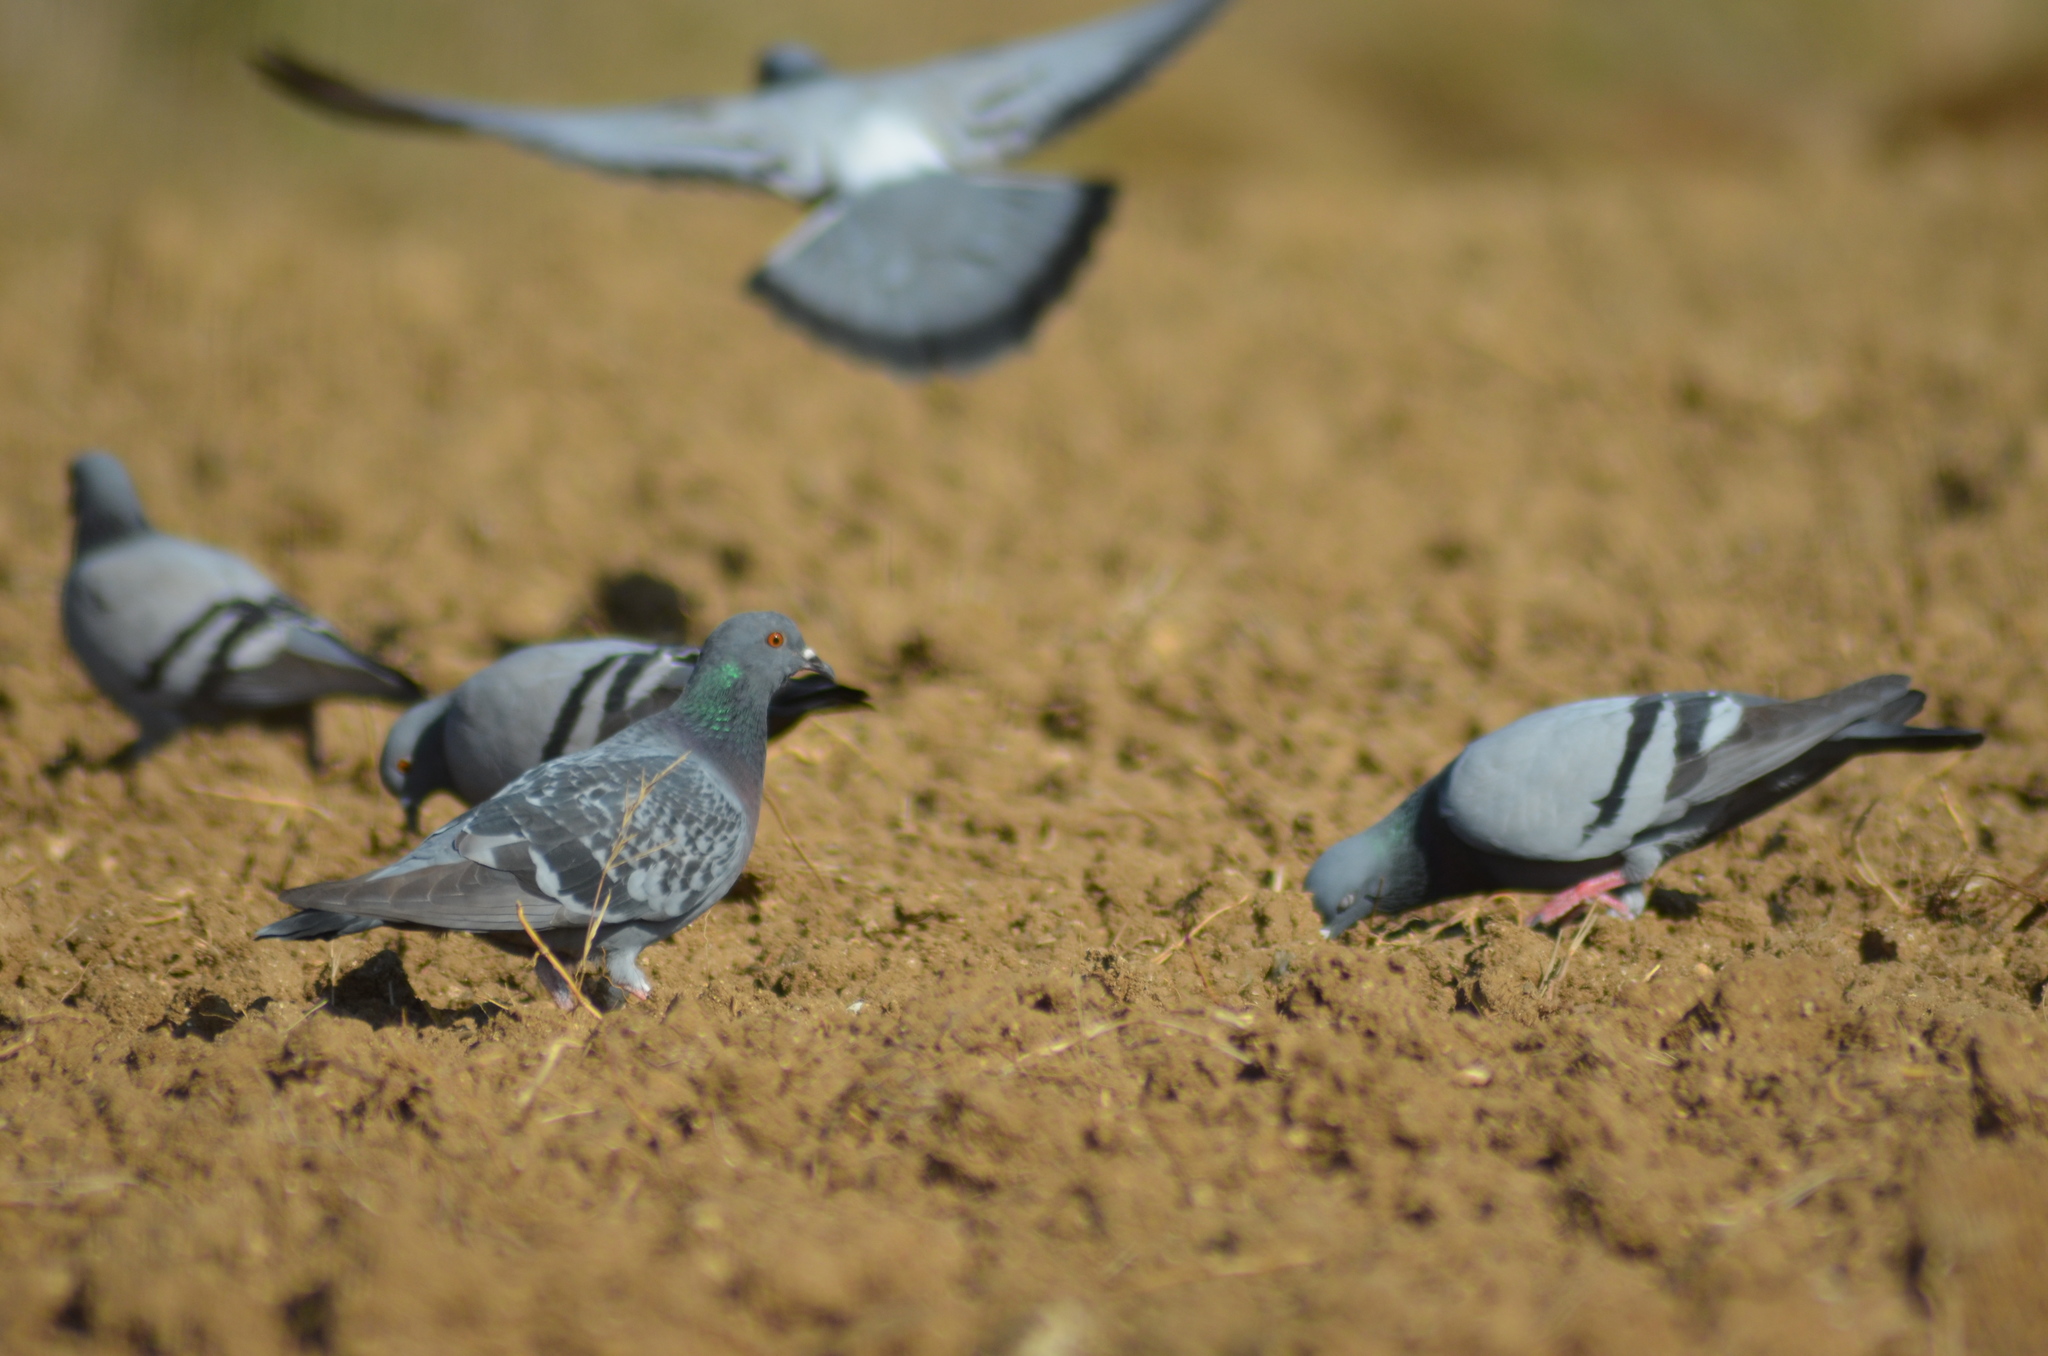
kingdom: Animalia
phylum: Chordata
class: Aves
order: Columbiformes
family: Columbidae
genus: Columba
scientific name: Columba livia
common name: Rock pigeon
